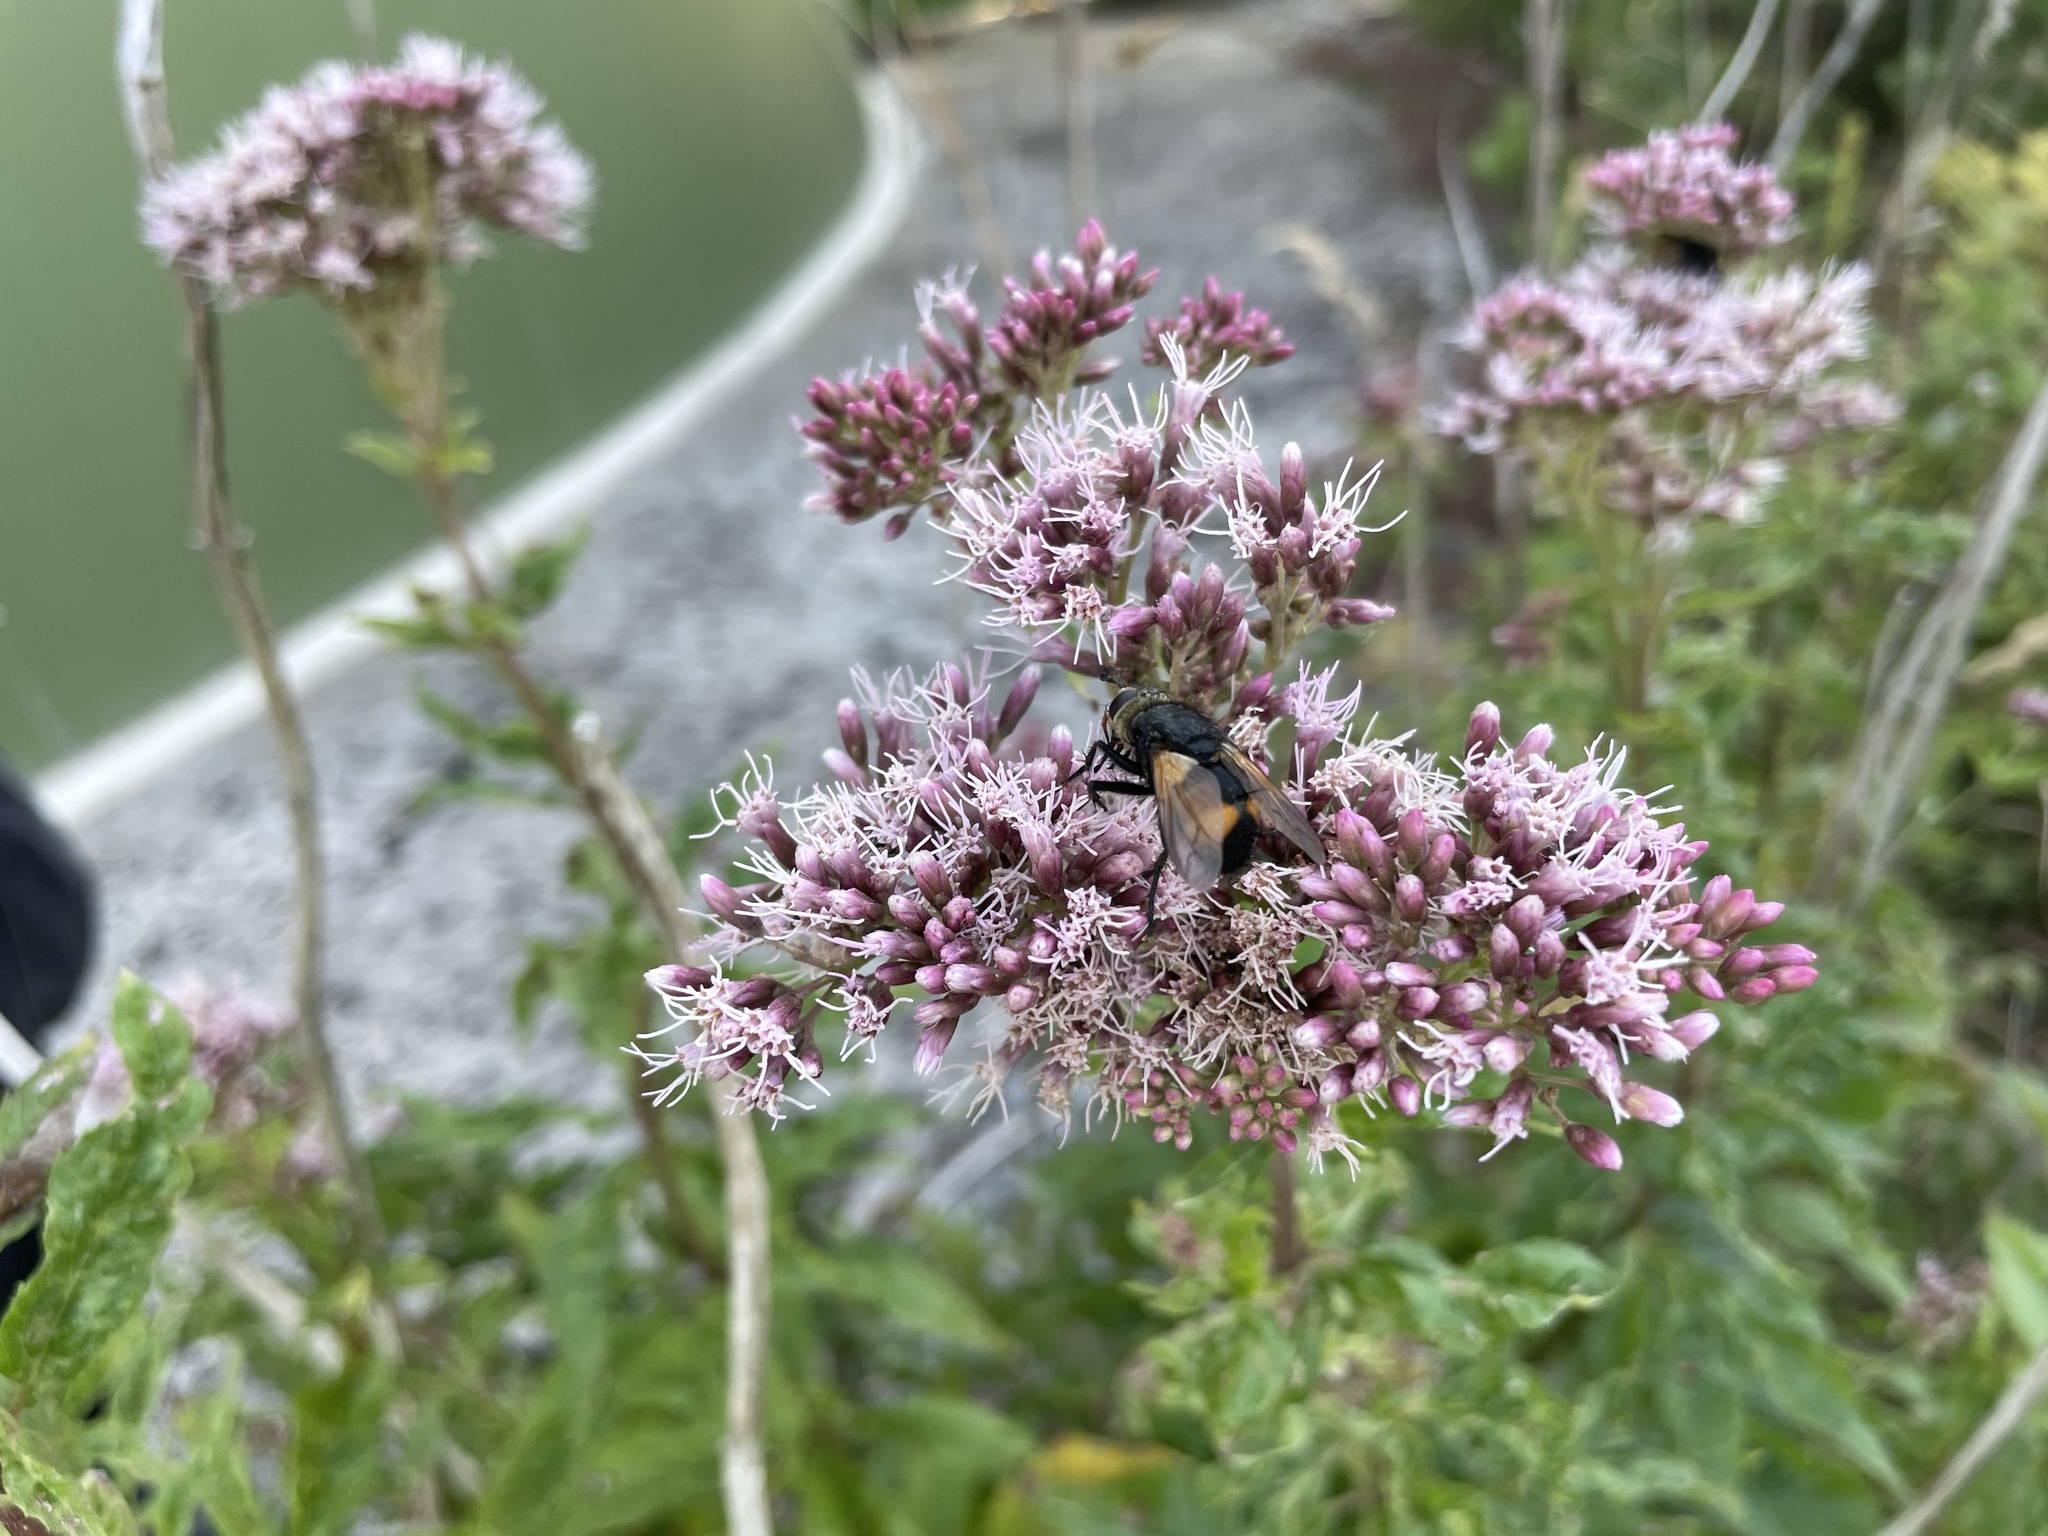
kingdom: Plantae
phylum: Tracheophyta
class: Magnoliopsida
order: Asterales
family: Asteraceae
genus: Eupatorium
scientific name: Eupatorium cannabinum
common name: Hemp-agrimony
